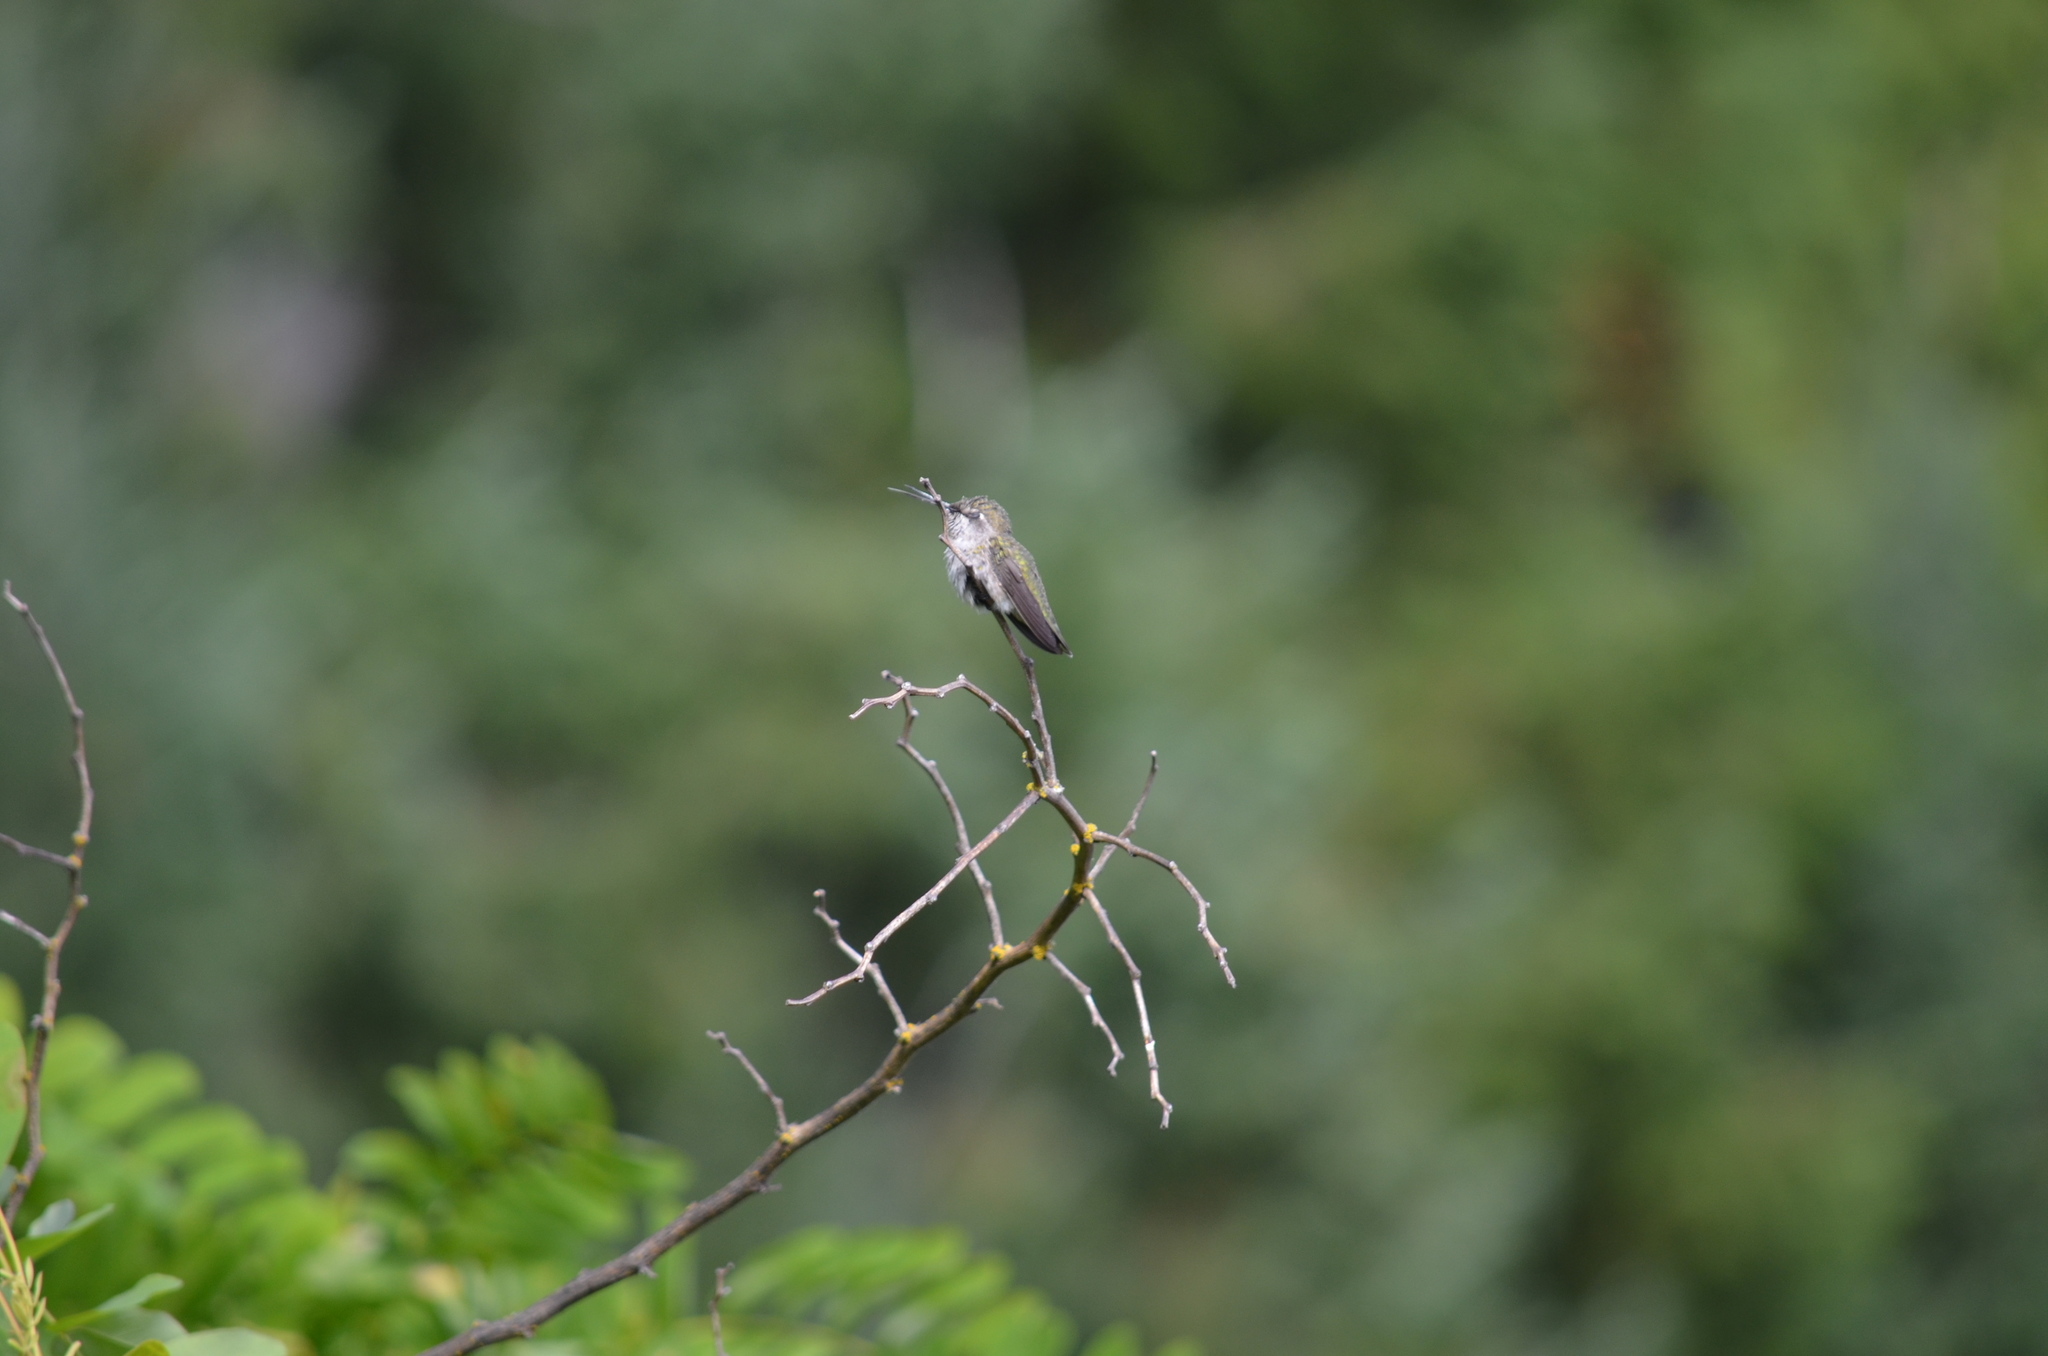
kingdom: Animalia
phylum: Chordata
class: Aves
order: Apodiformes
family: Trochilidae
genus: Calypte
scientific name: Calypte anna
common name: Anna's hummingbird
